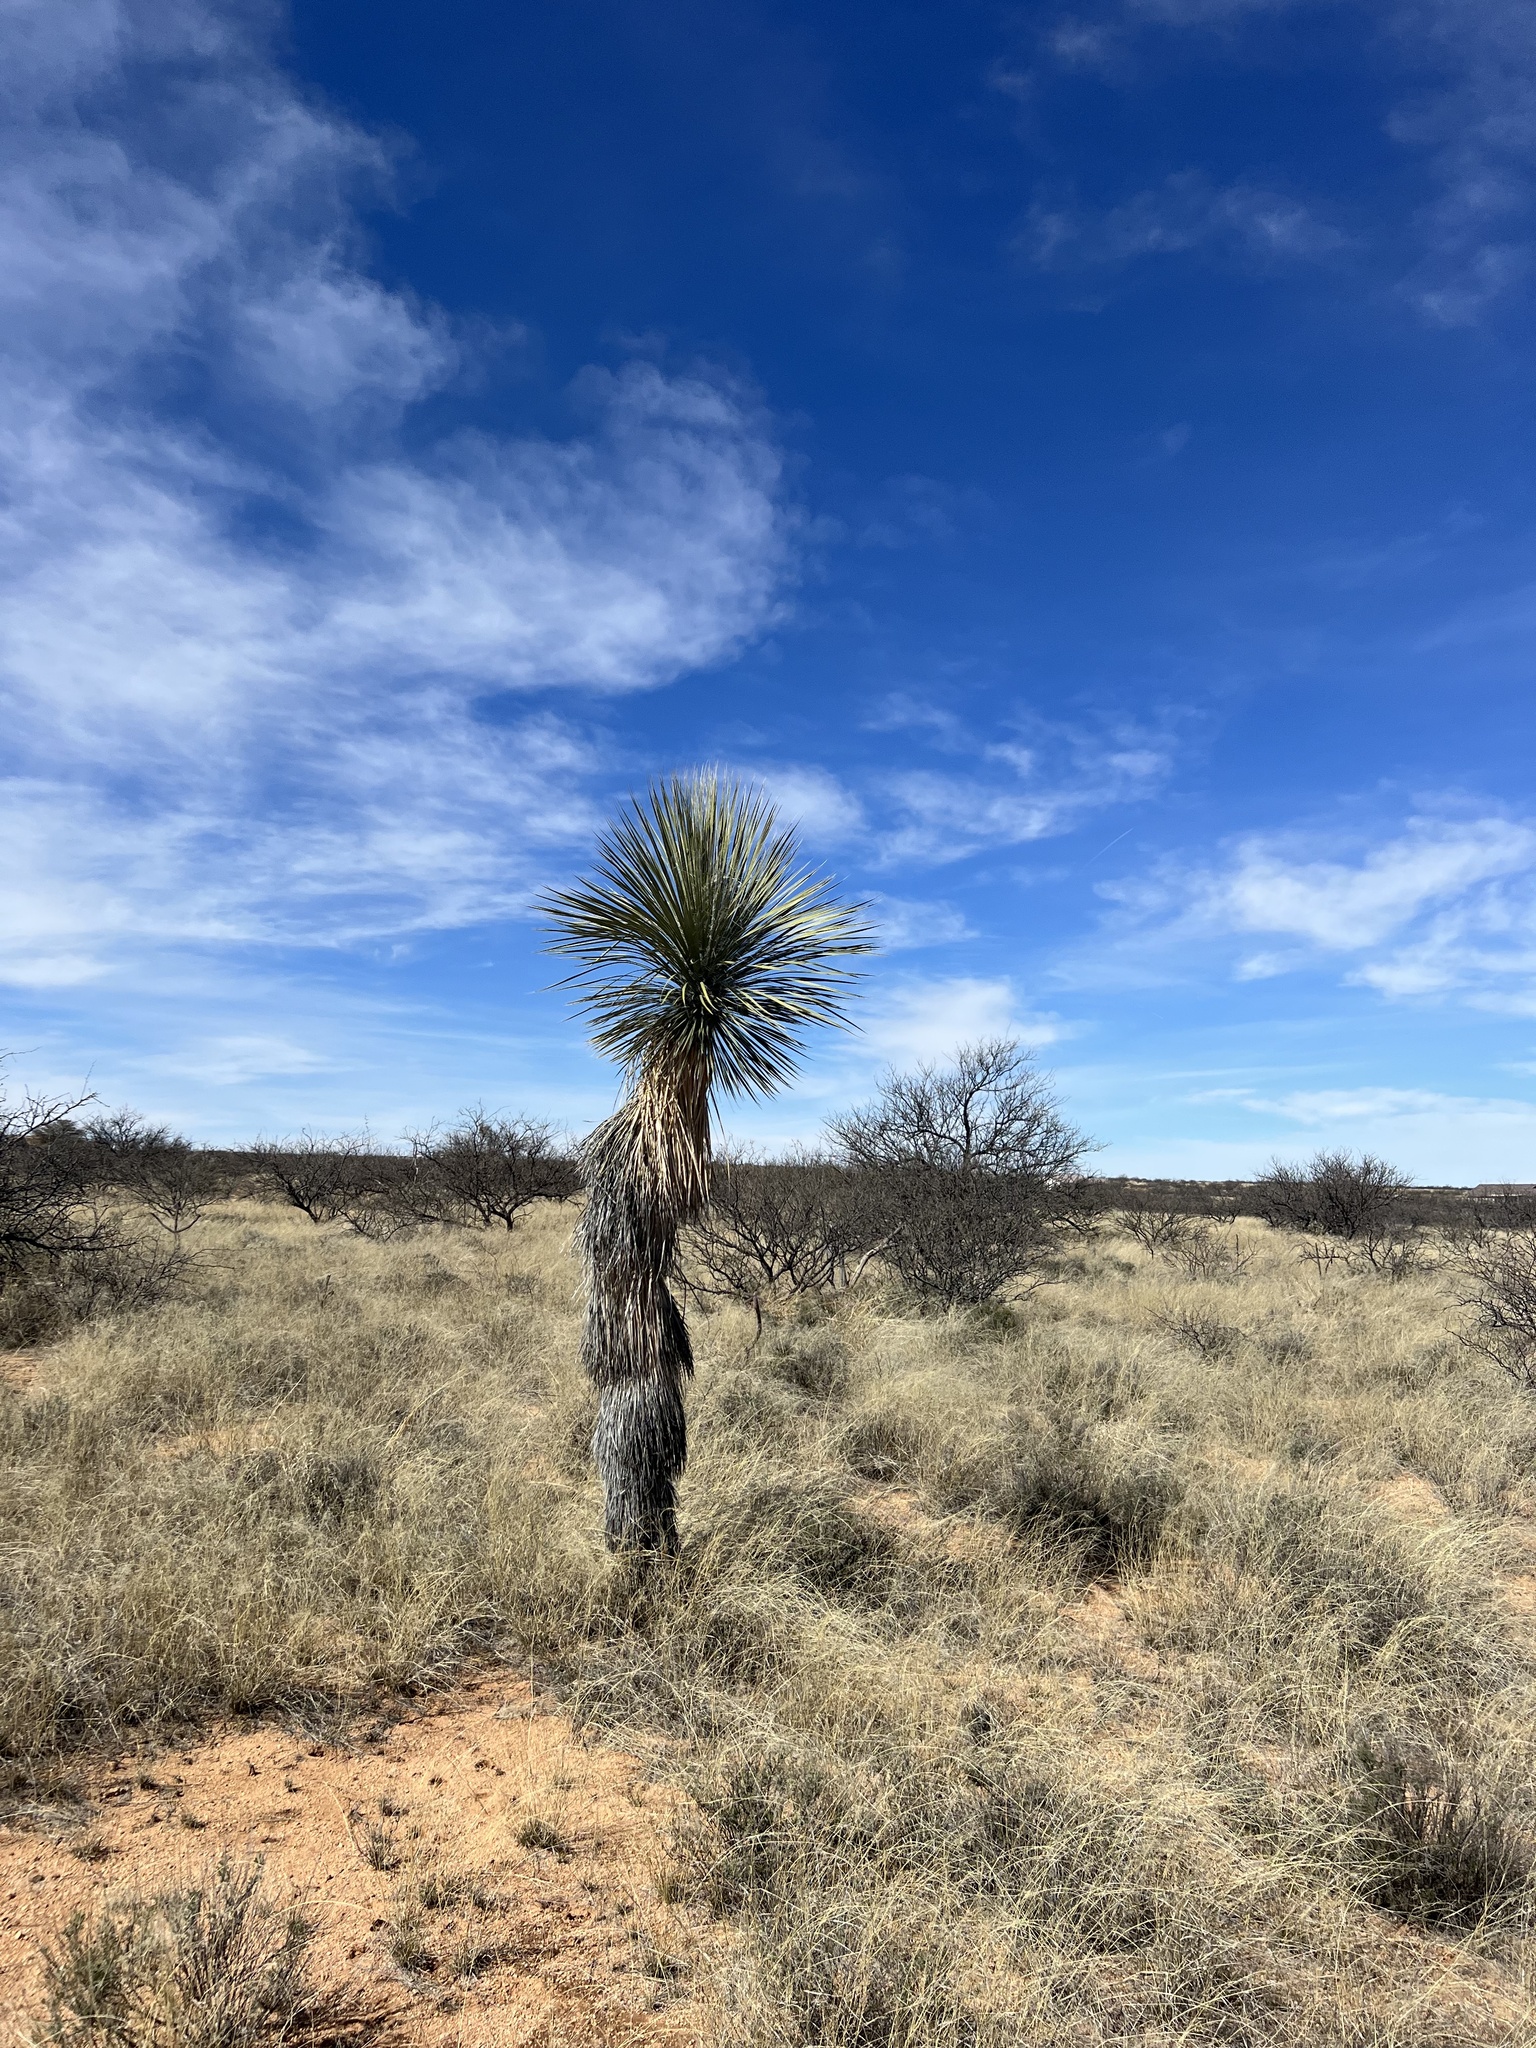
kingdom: Plantae
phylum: Tracheophyta
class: Liliopsida
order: Asparagales
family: Asparagaceae
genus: Yucca
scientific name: Yucca elata
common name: Palmella
